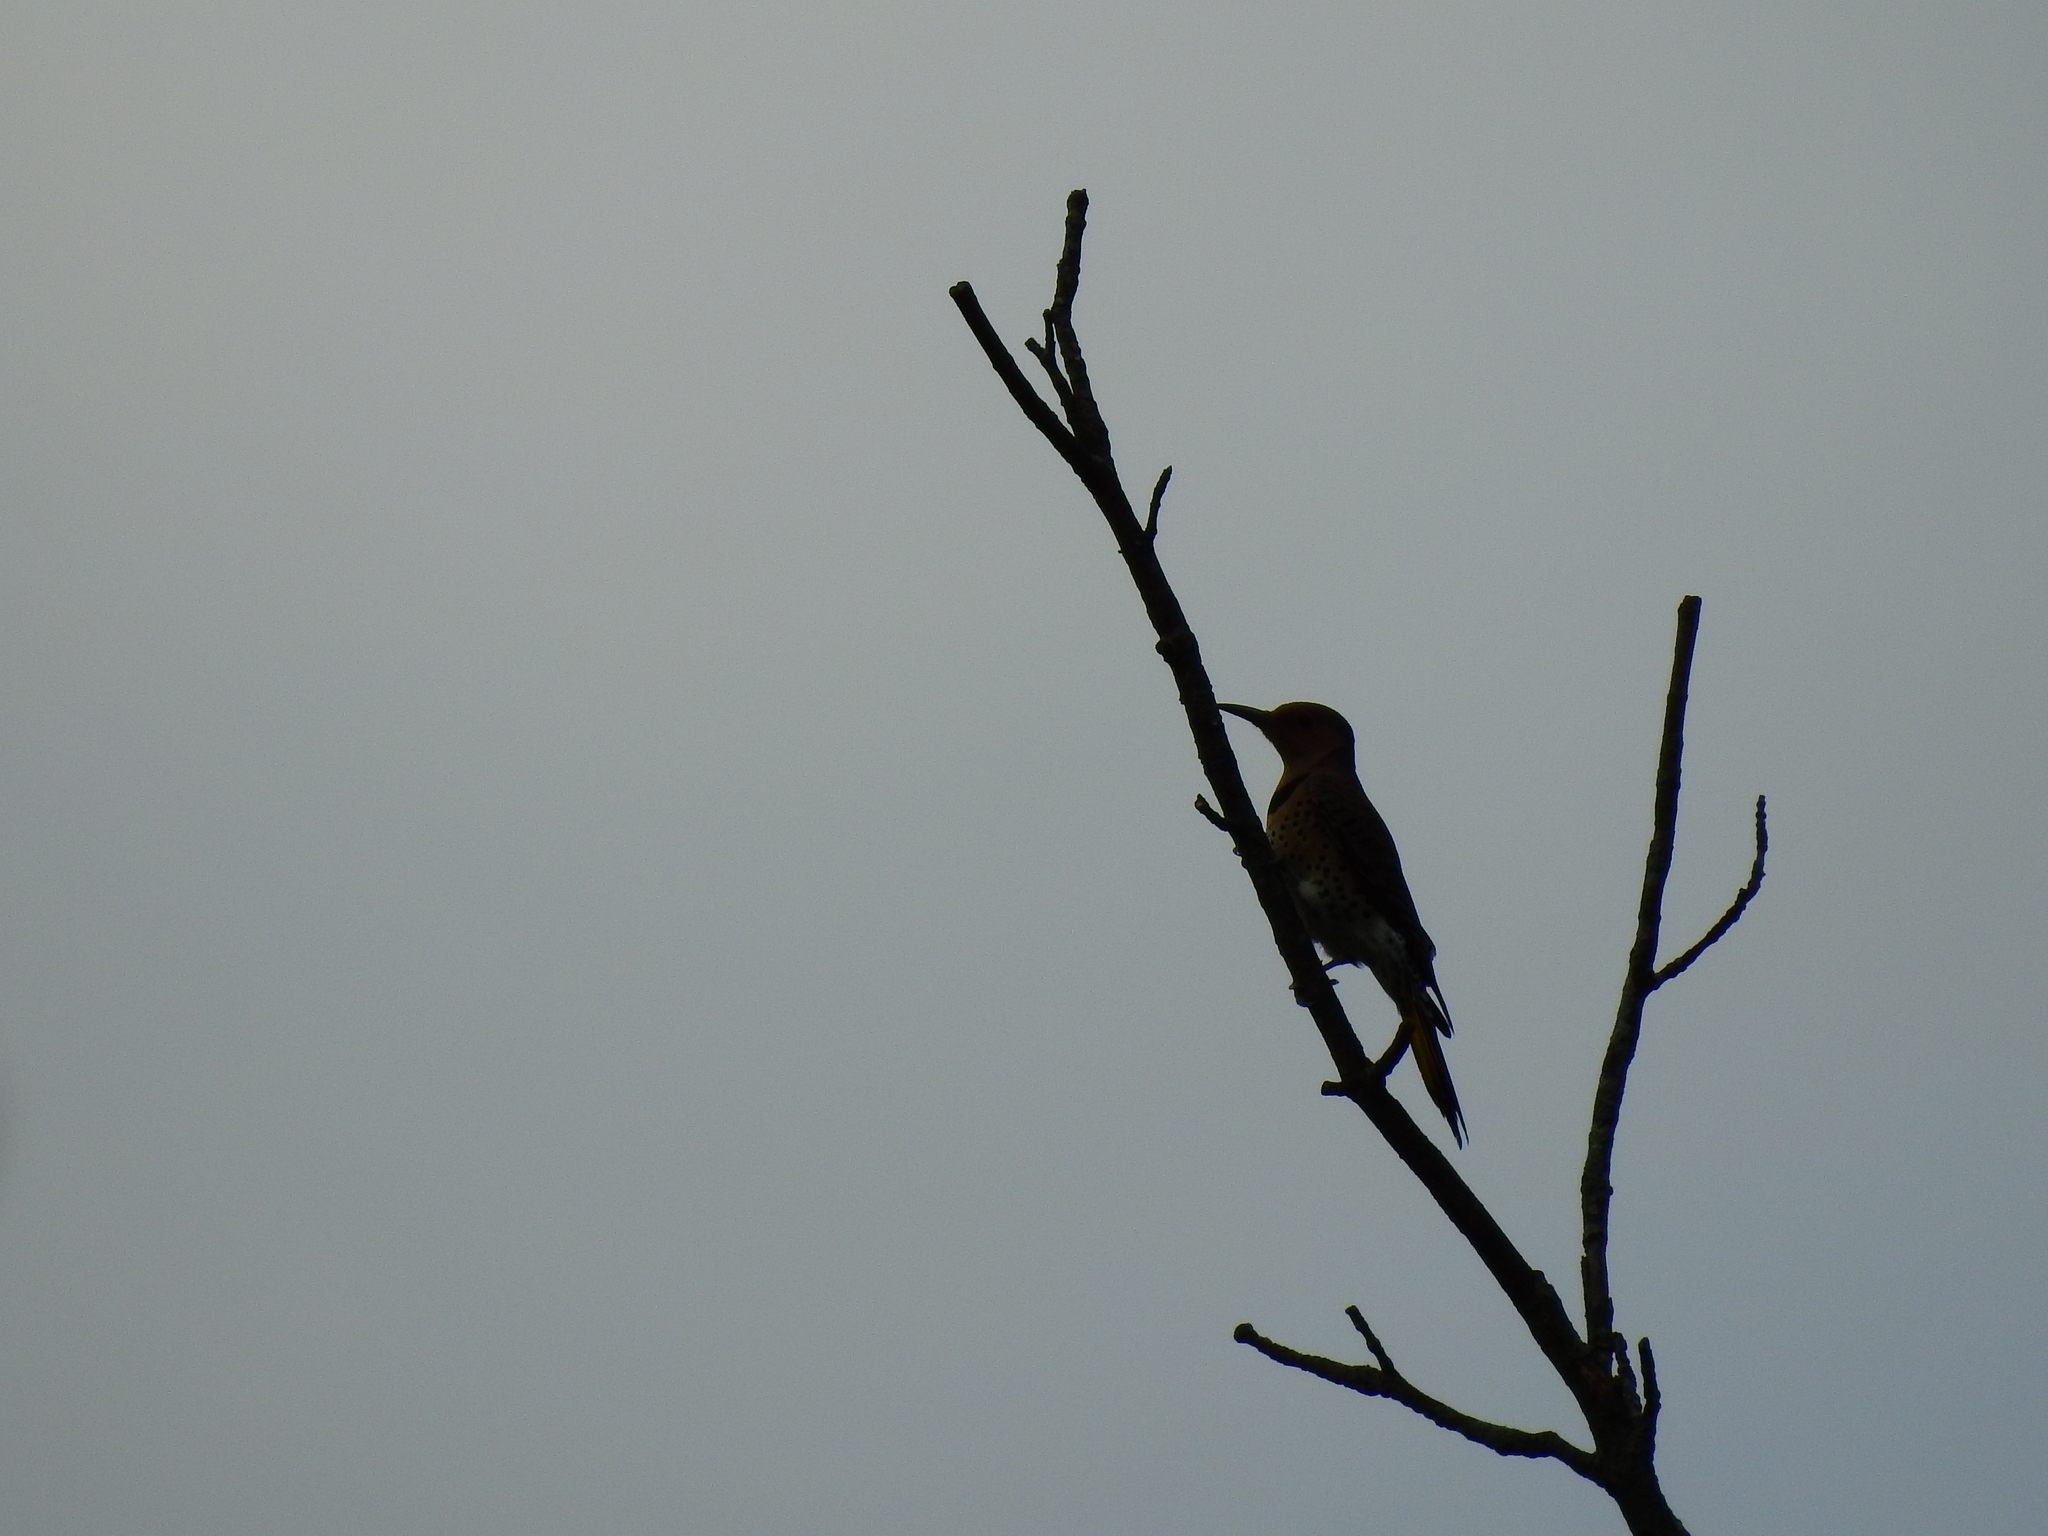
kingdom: Animalia
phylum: Chordata
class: Aves
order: Piciformes
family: Picidae
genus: Colaptes
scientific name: Colaptes auratus
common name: Northern flicker
